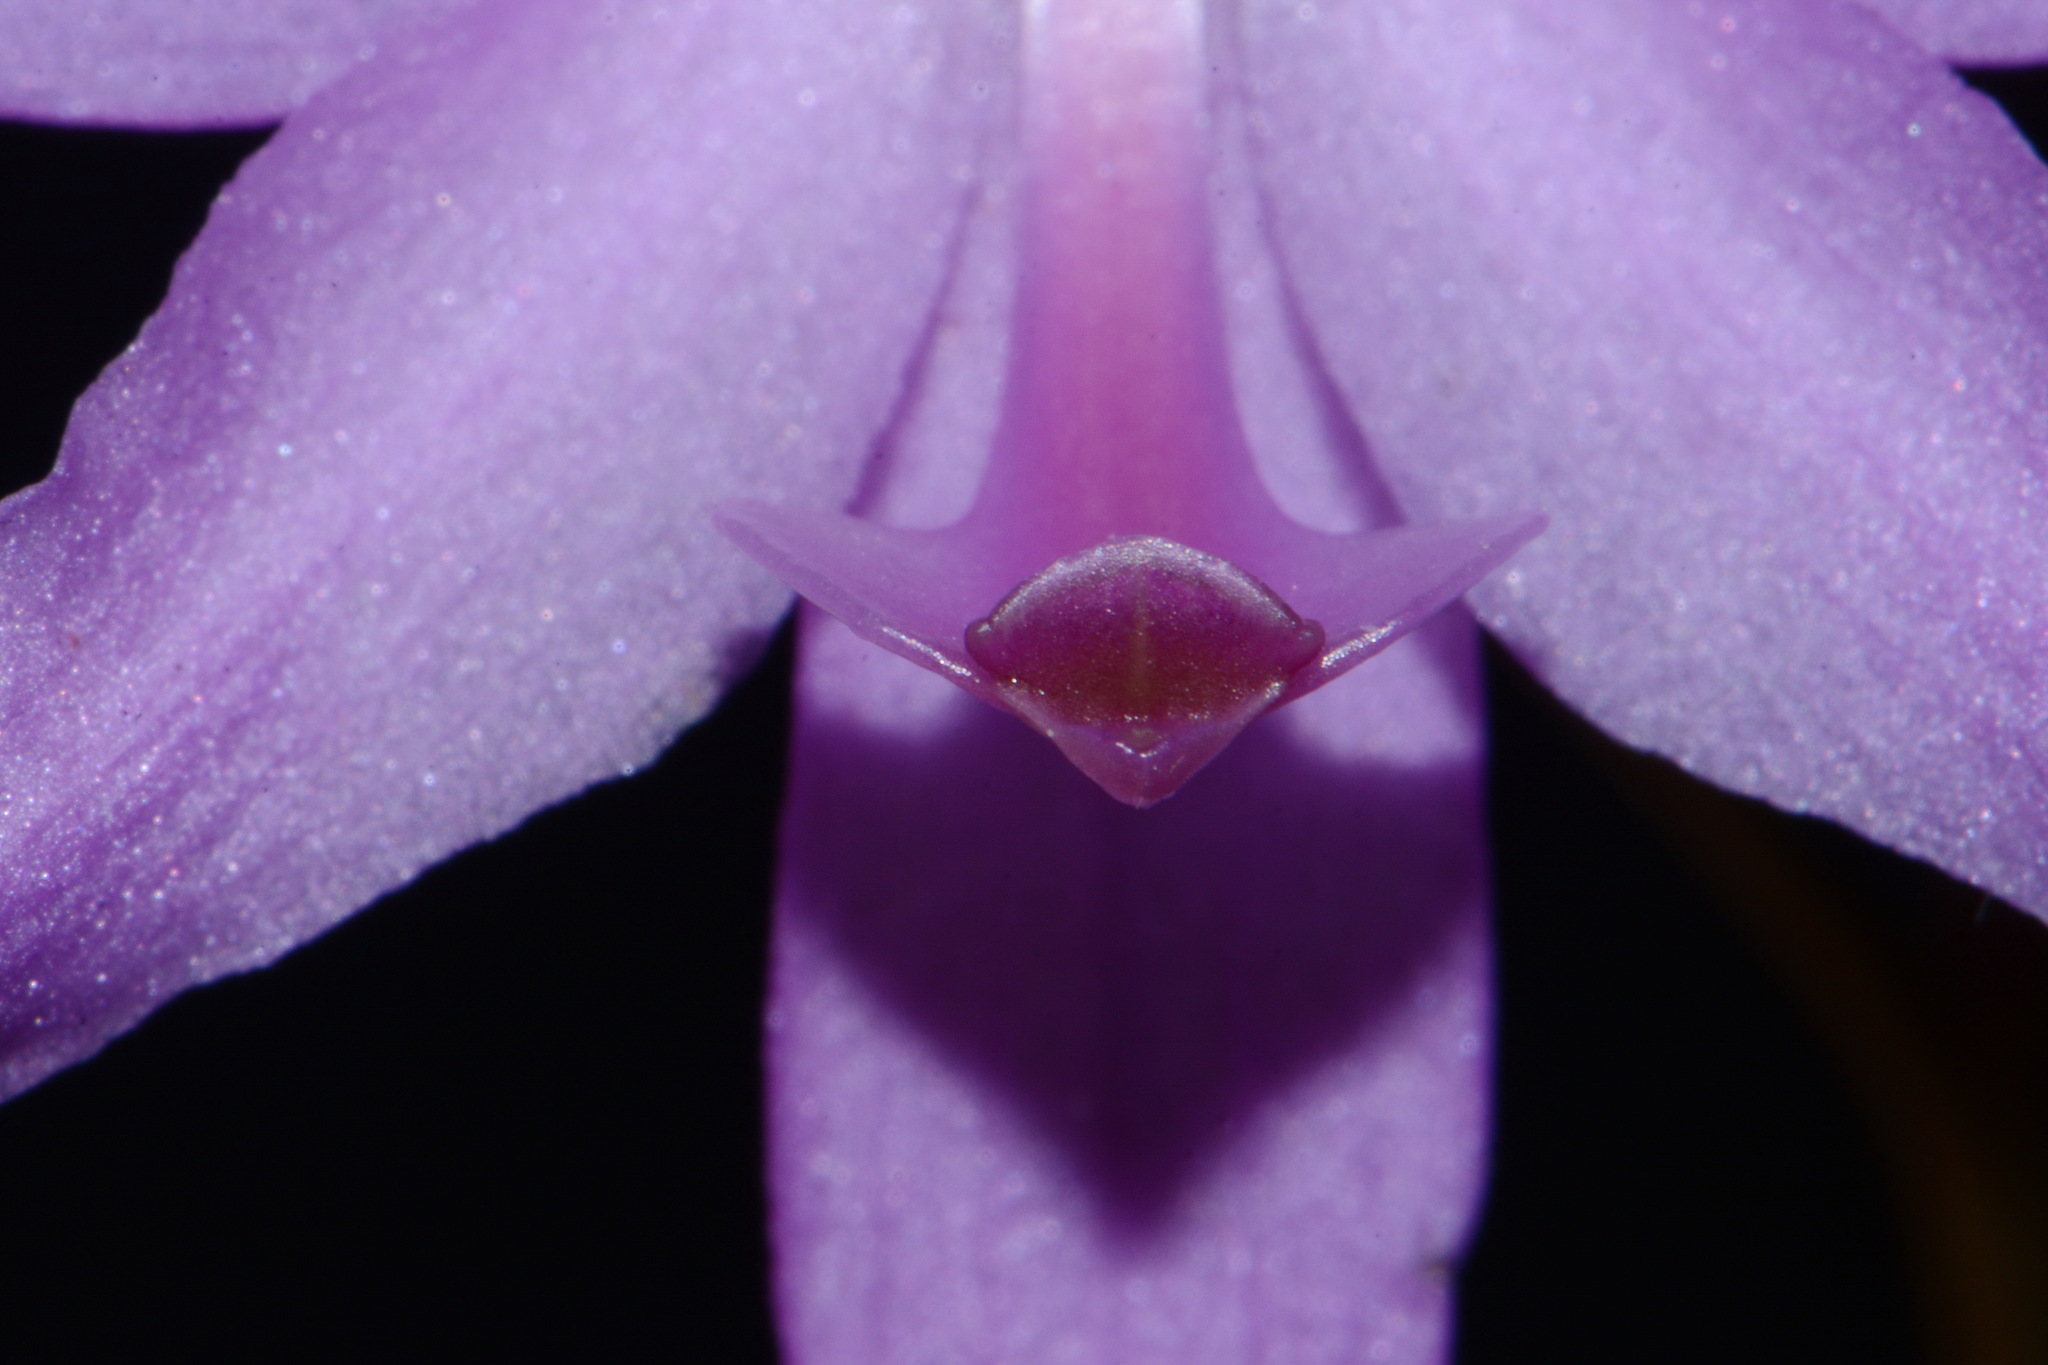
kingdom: Plantae
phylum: Tracheophyta
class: Liliopsida
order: Asparagales
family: Orchidaceae
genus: Calopogon
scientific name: Calopogon tuberosus
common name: Grass-pink
